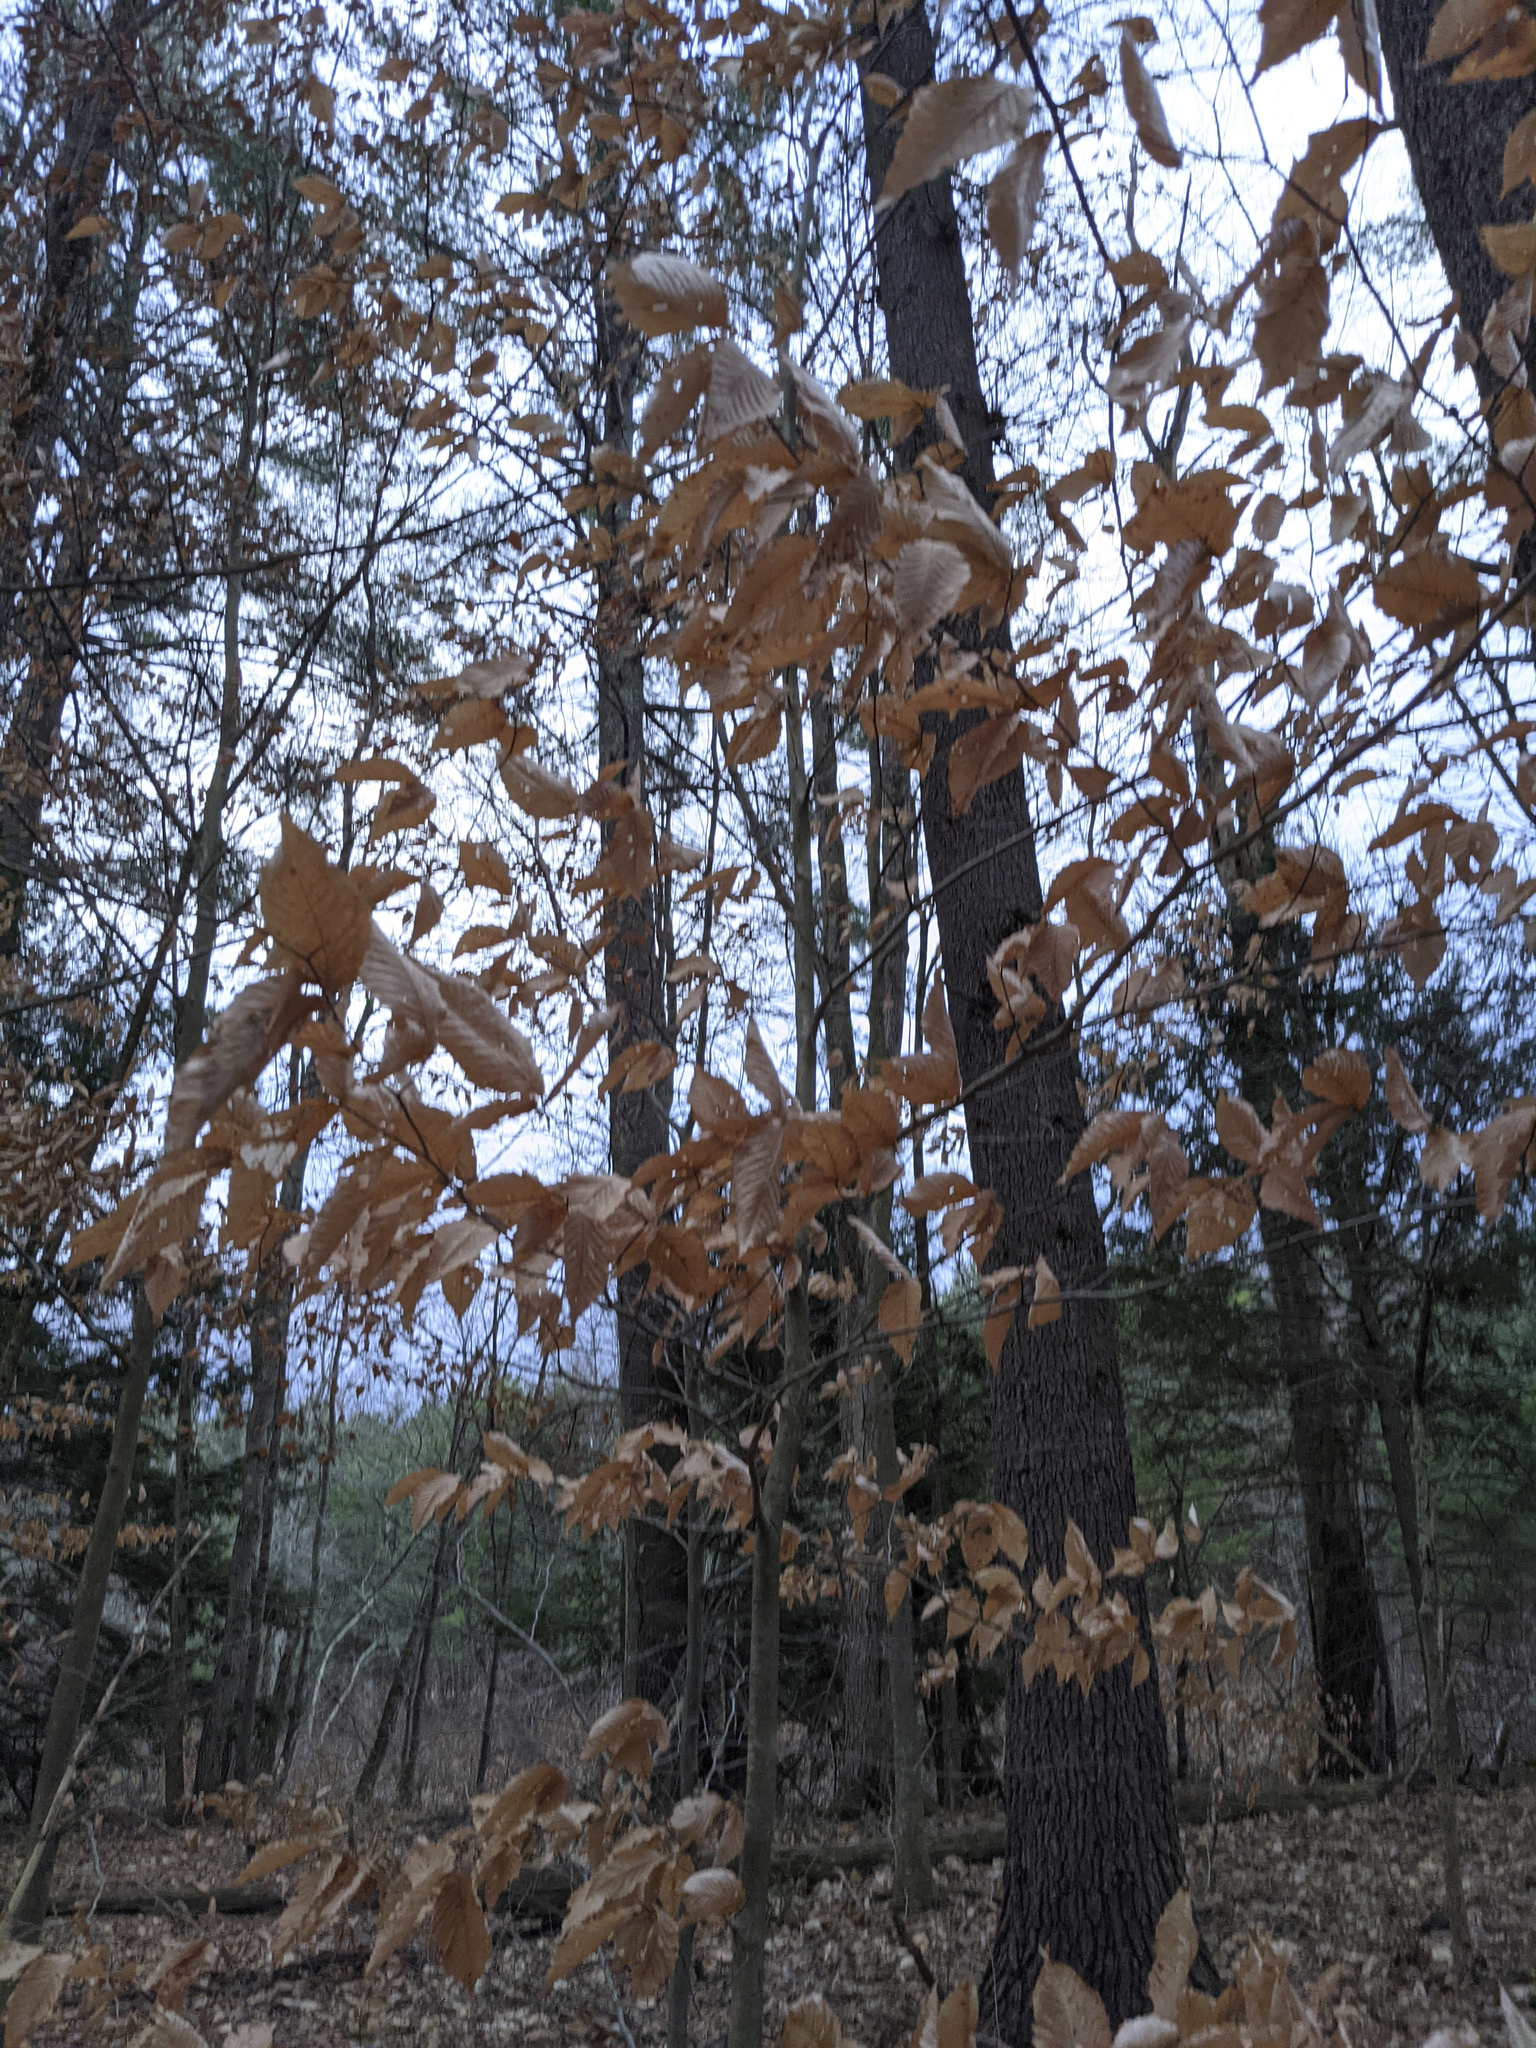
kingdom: Plantae
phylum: Tracheophyta
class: Magnoliopsida
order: Fagales
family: Fagaceae
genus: Fagus
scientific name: Fagus grandifolia
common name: American beech
